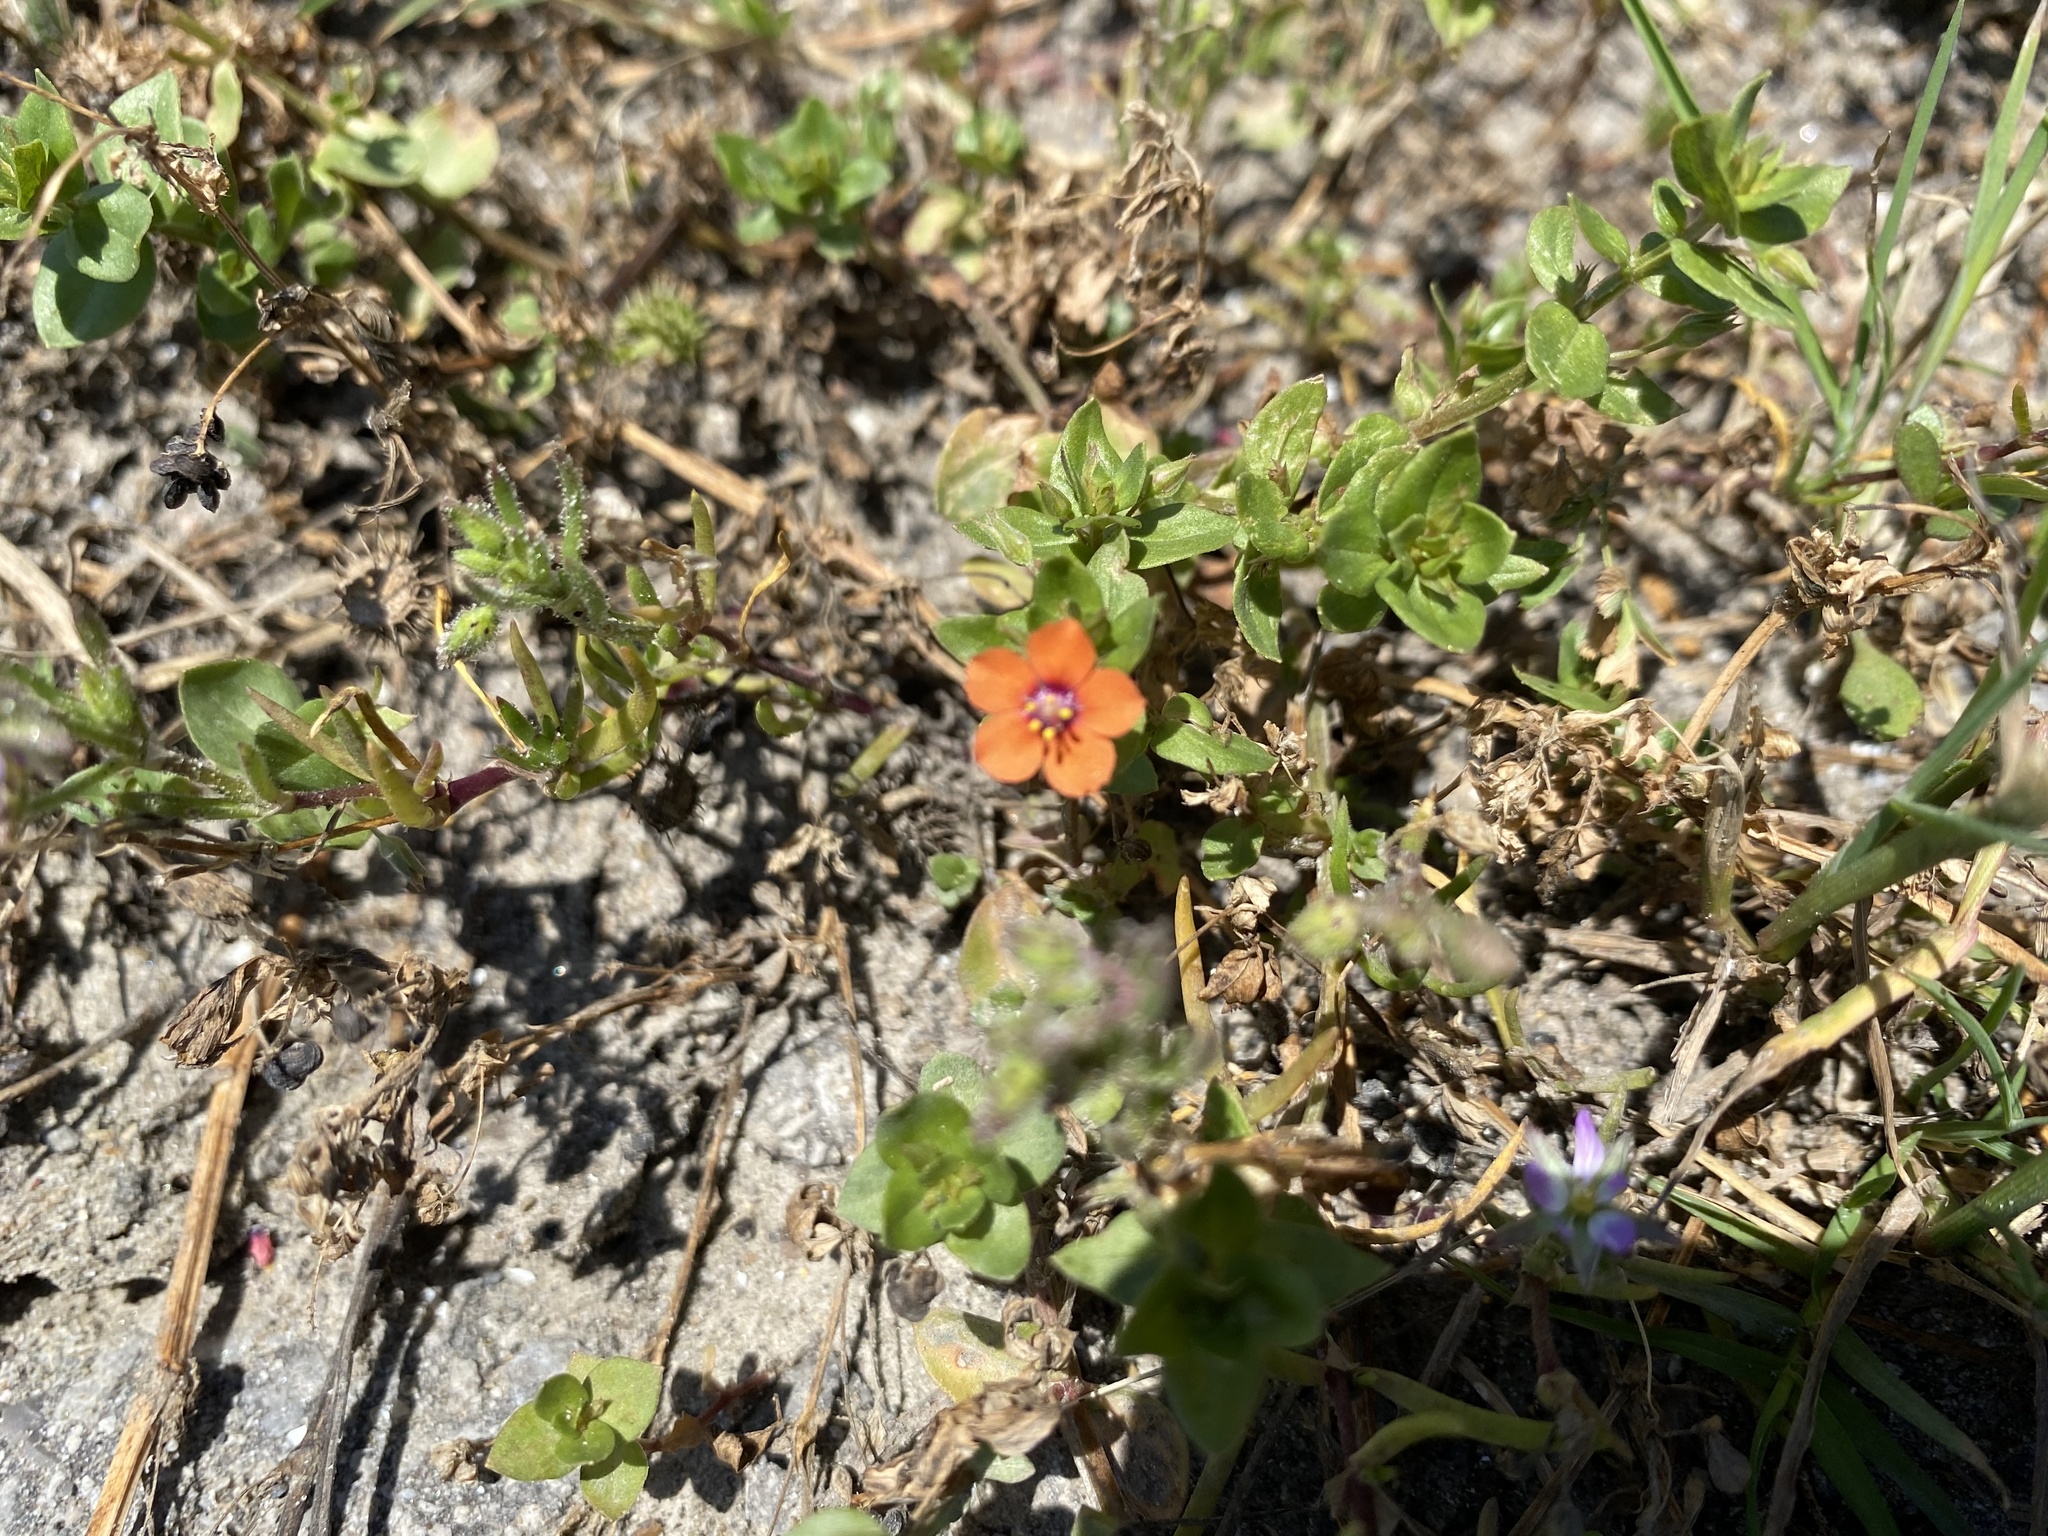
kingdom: Plantae
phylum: Tracheophyta
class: Magnoliopsida
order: Ericales
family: Primulaceae
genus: Lysimachia
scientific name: Lysimachia arvensis
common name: Scarlet pimpernel
